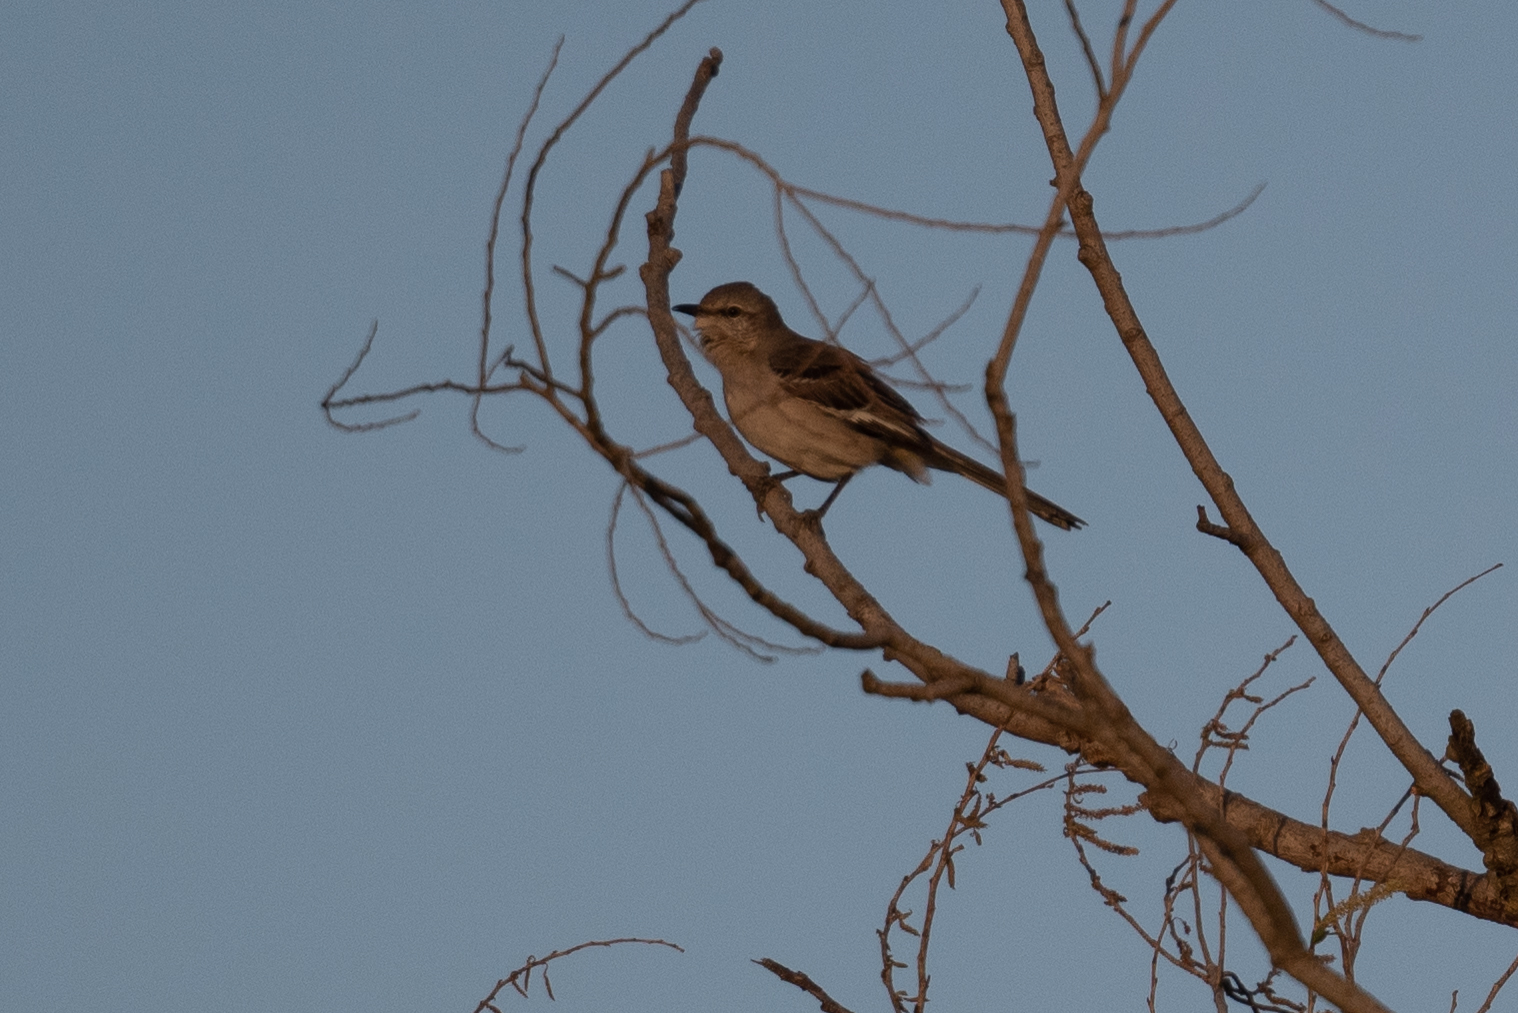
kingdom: Animalia
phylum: Chordata
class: Aves
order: Passeriformes
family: Mimidae
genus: Mimus
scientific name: Mimus polyglottos
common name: Northern mockingbird
